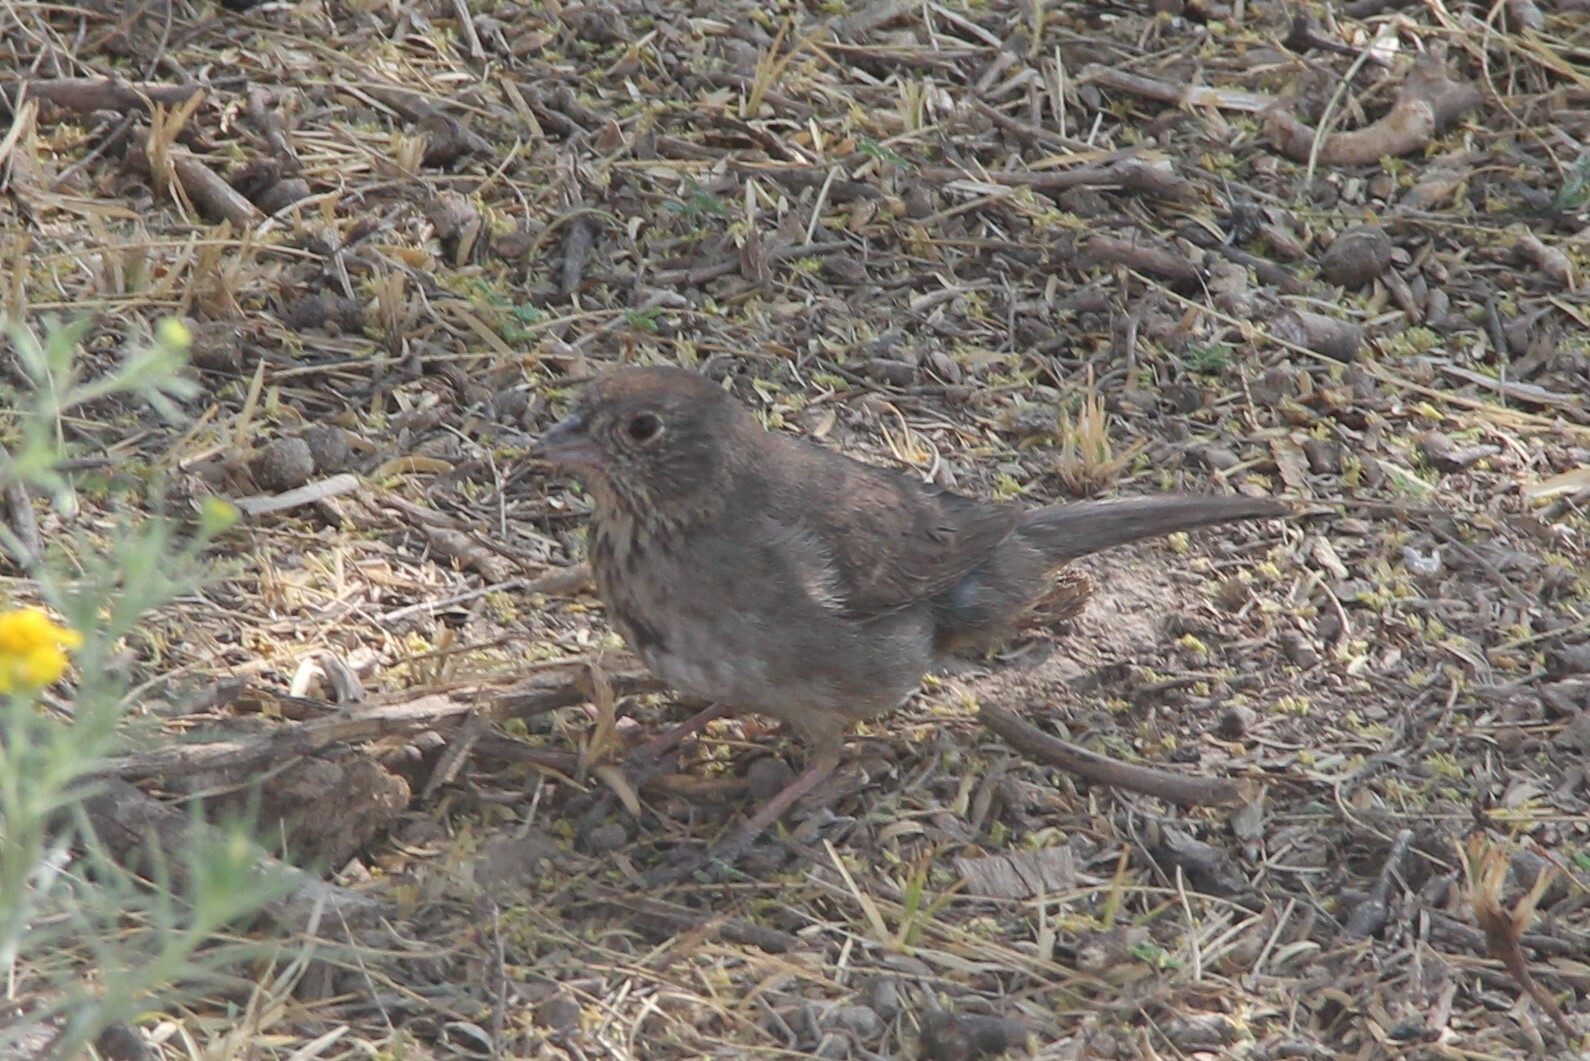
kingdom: Animalia
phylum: Chordata
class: Aves
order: Passeriformes
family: Passerellidae
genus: Melozone
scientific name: Melozone fusca
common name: Canyon towhee
